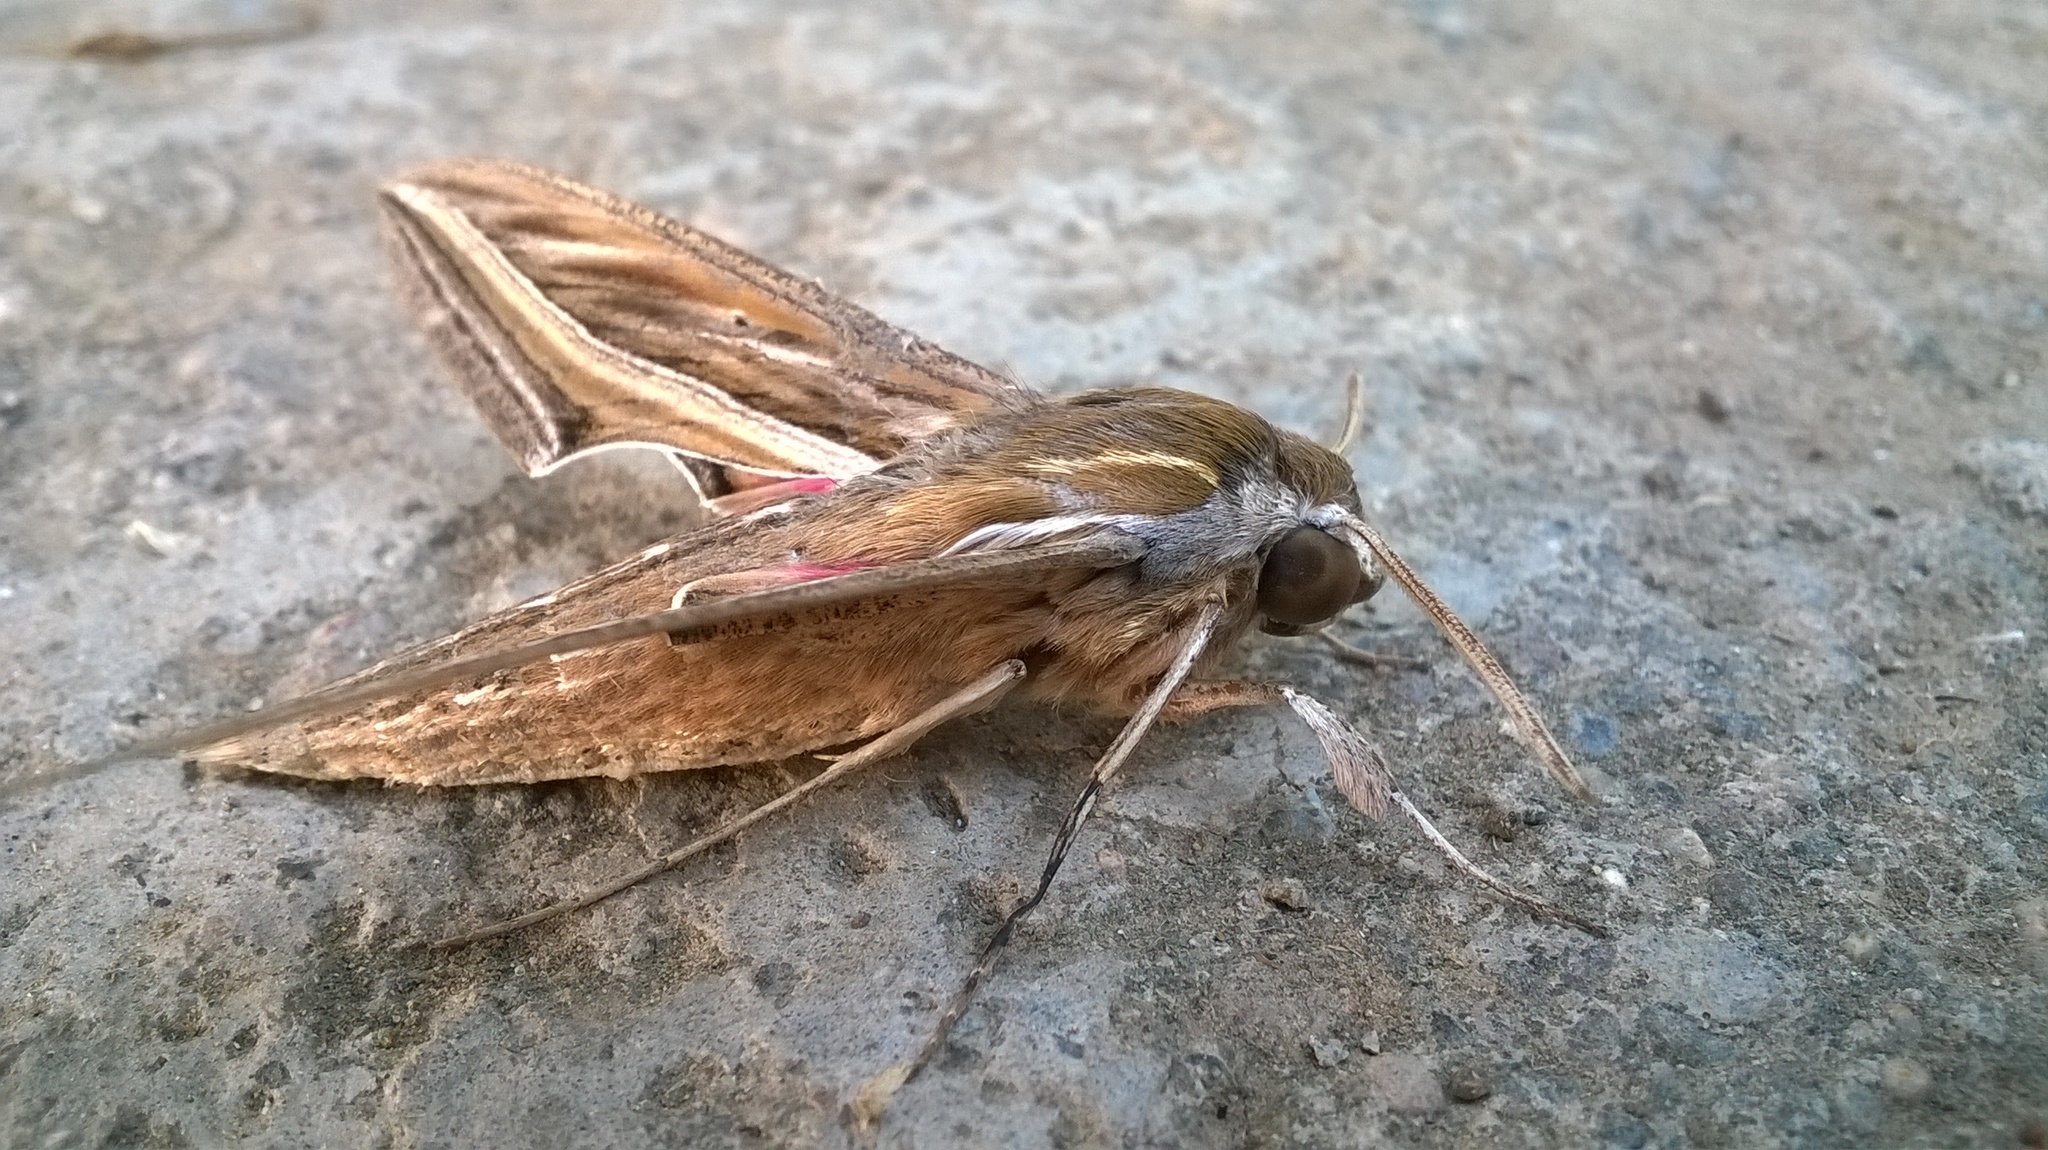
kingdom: Animalia
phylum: Arthropoda
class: Insecta
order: Lepidoptera
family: Sphingidae
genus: Hippotion
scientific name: Hippotion celerio
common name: Silver-striped hawk-moth
